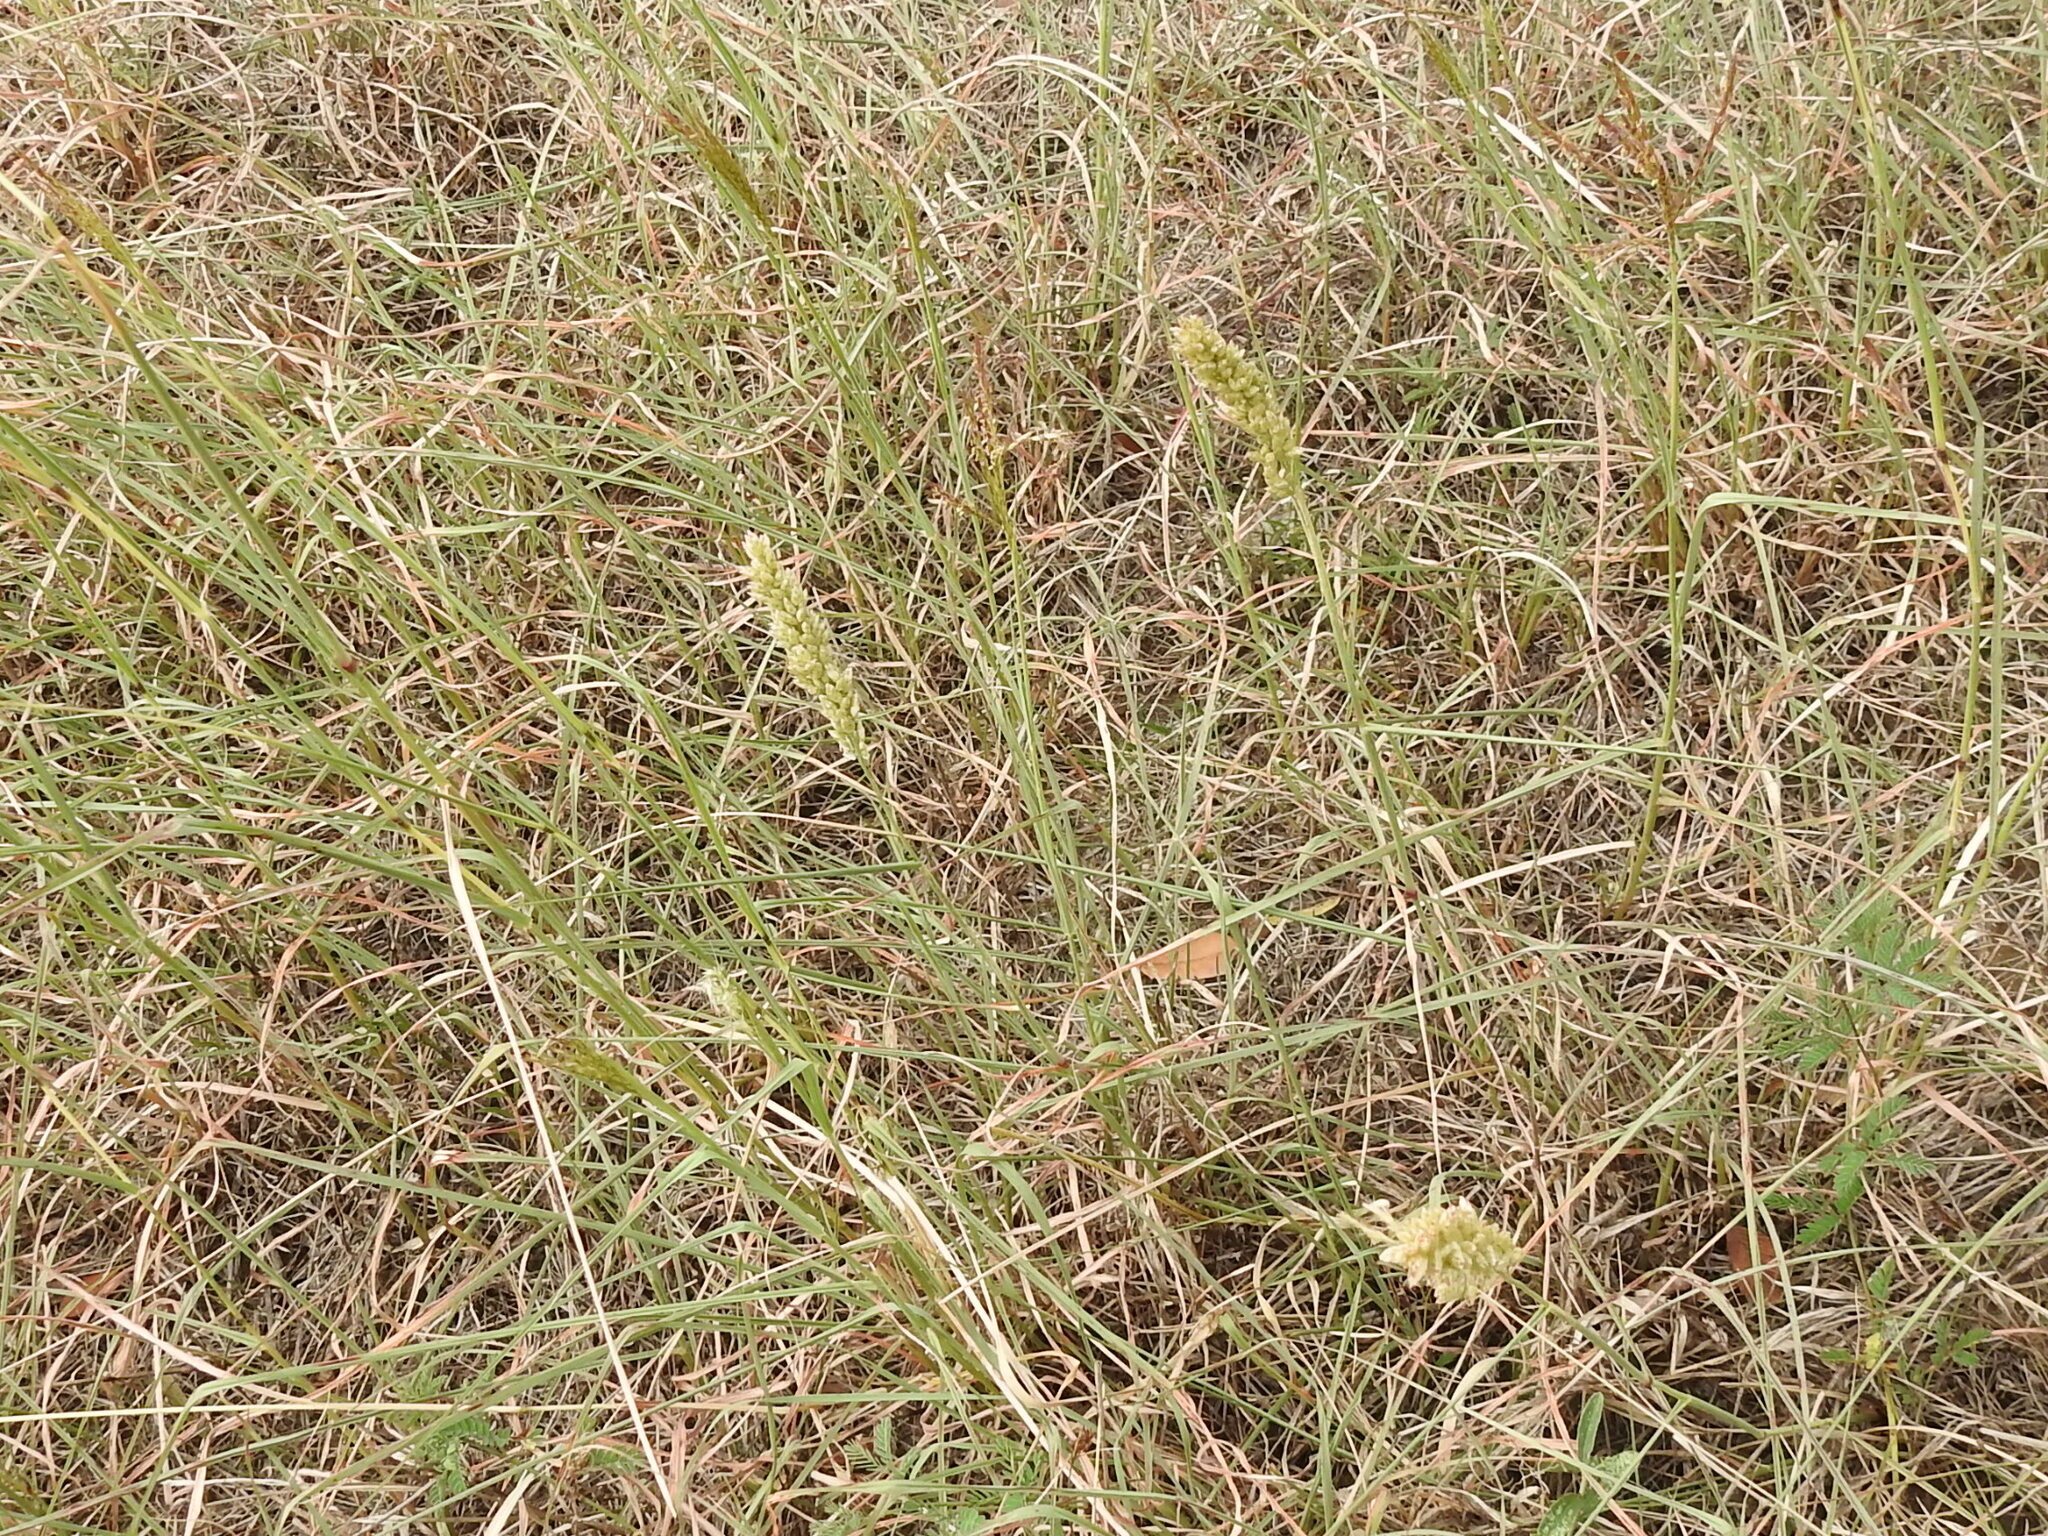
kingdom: Plantae
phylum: Tracheophyta
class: Liliopsida
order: Poales
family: Poaceae
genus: Tridens
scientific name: Tridens congestus
